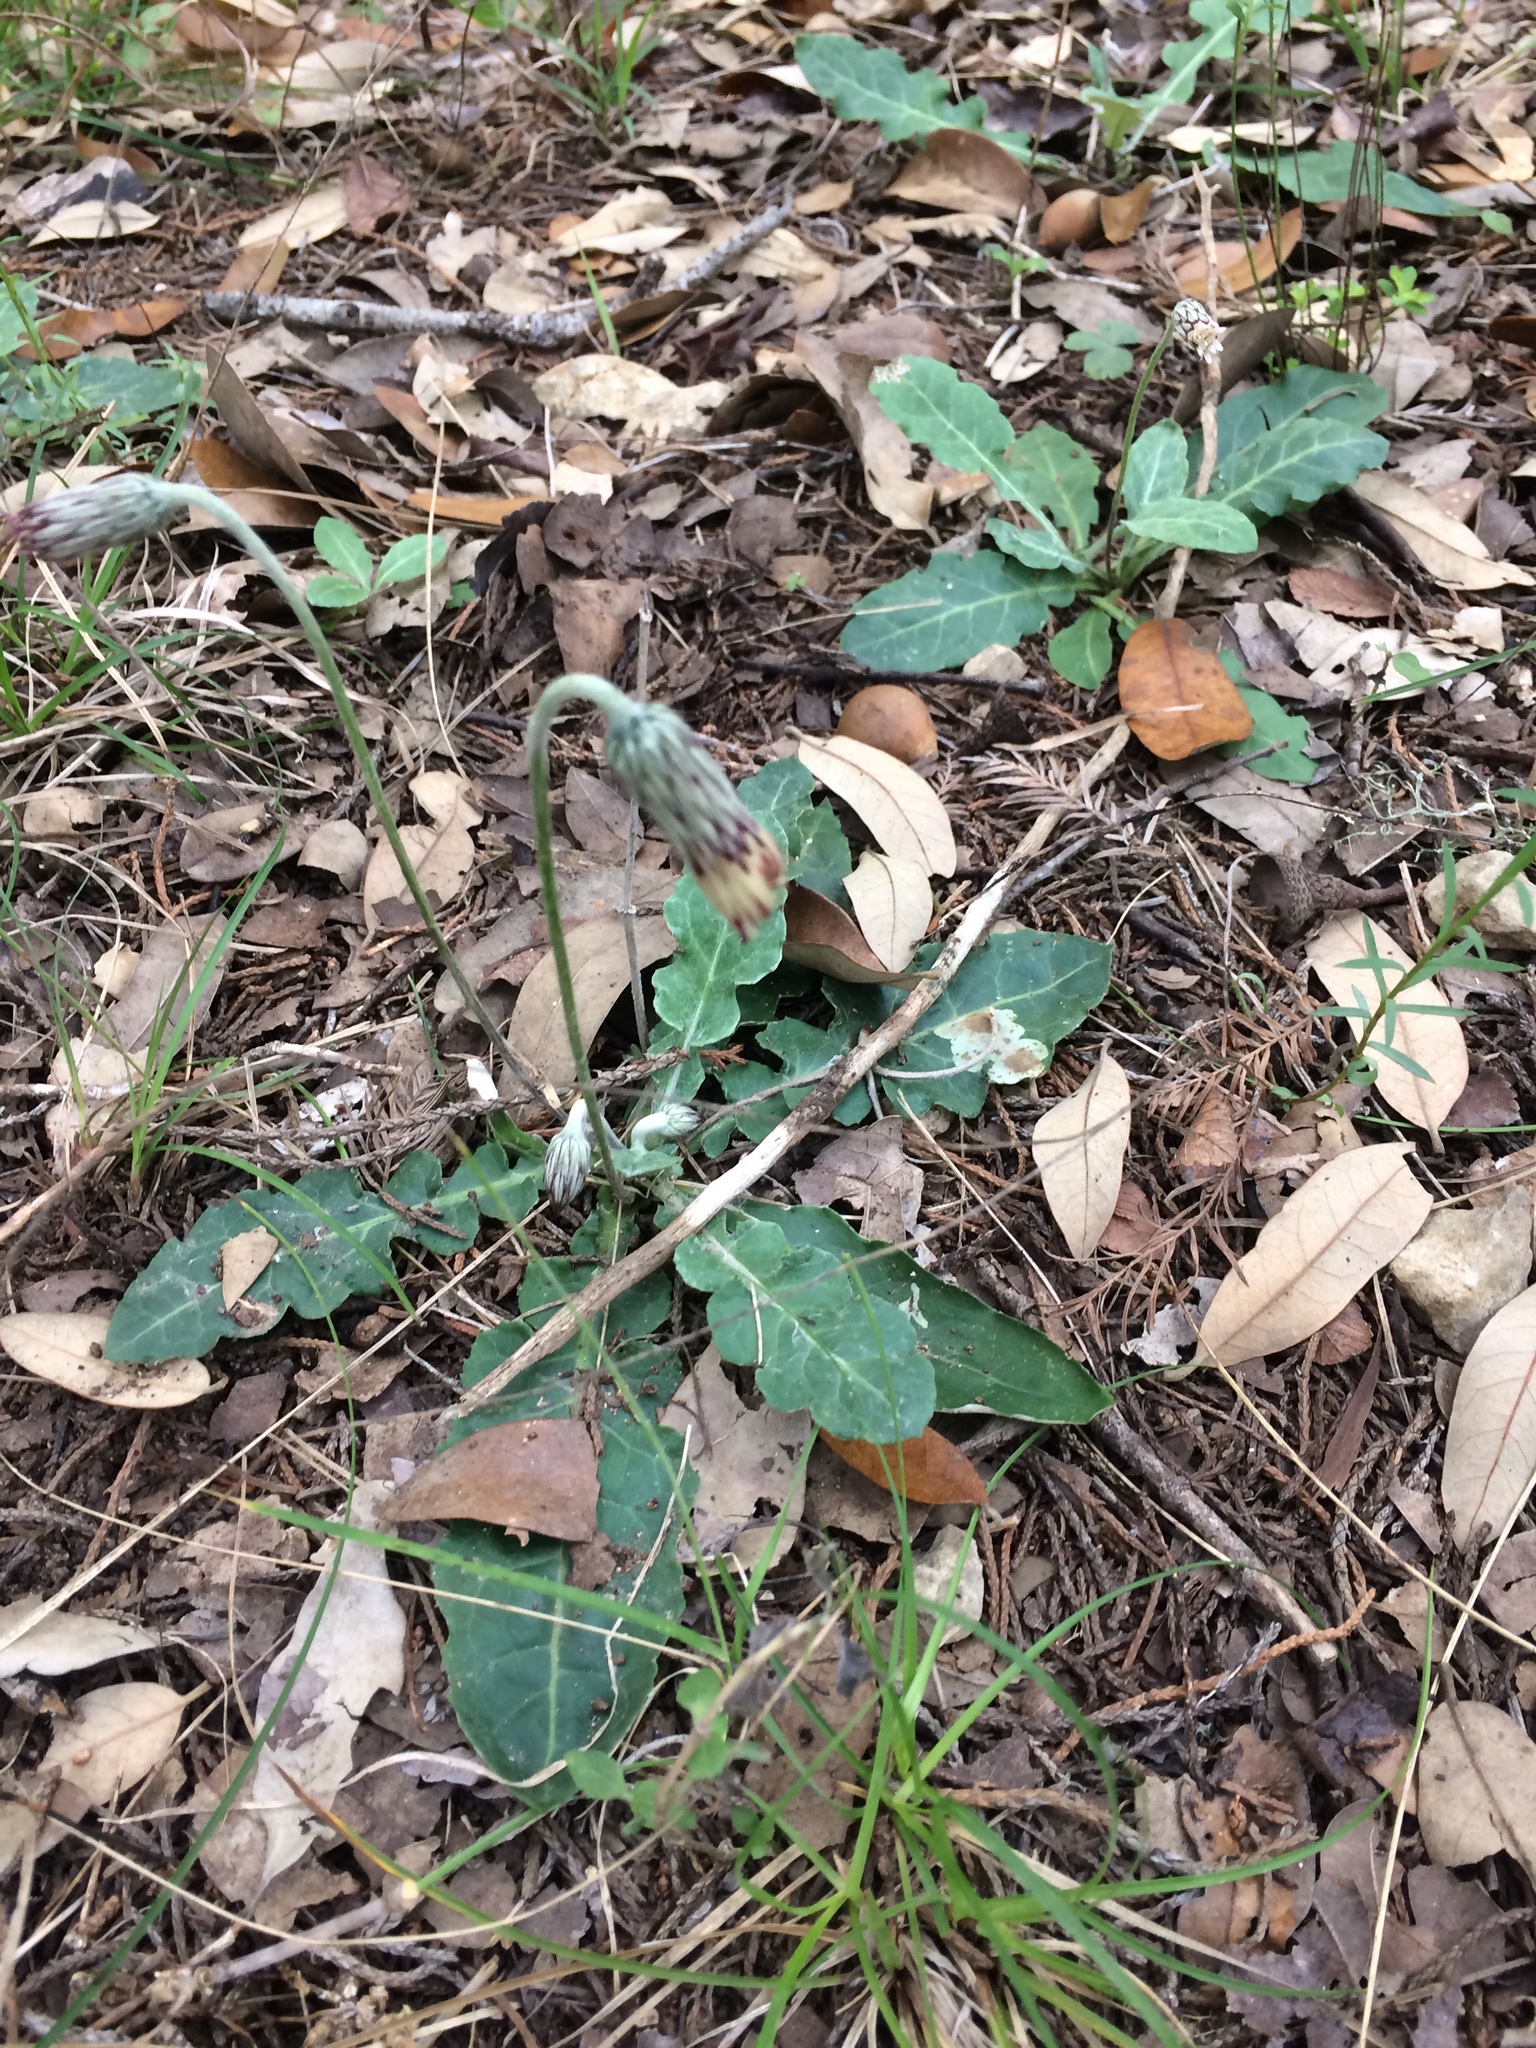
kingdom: Plantae
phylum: Tracheophyta
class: Magnoliopsida
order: Asterales
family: Asteraceae
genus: Chaptalia
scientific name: Chaptalia nutans
